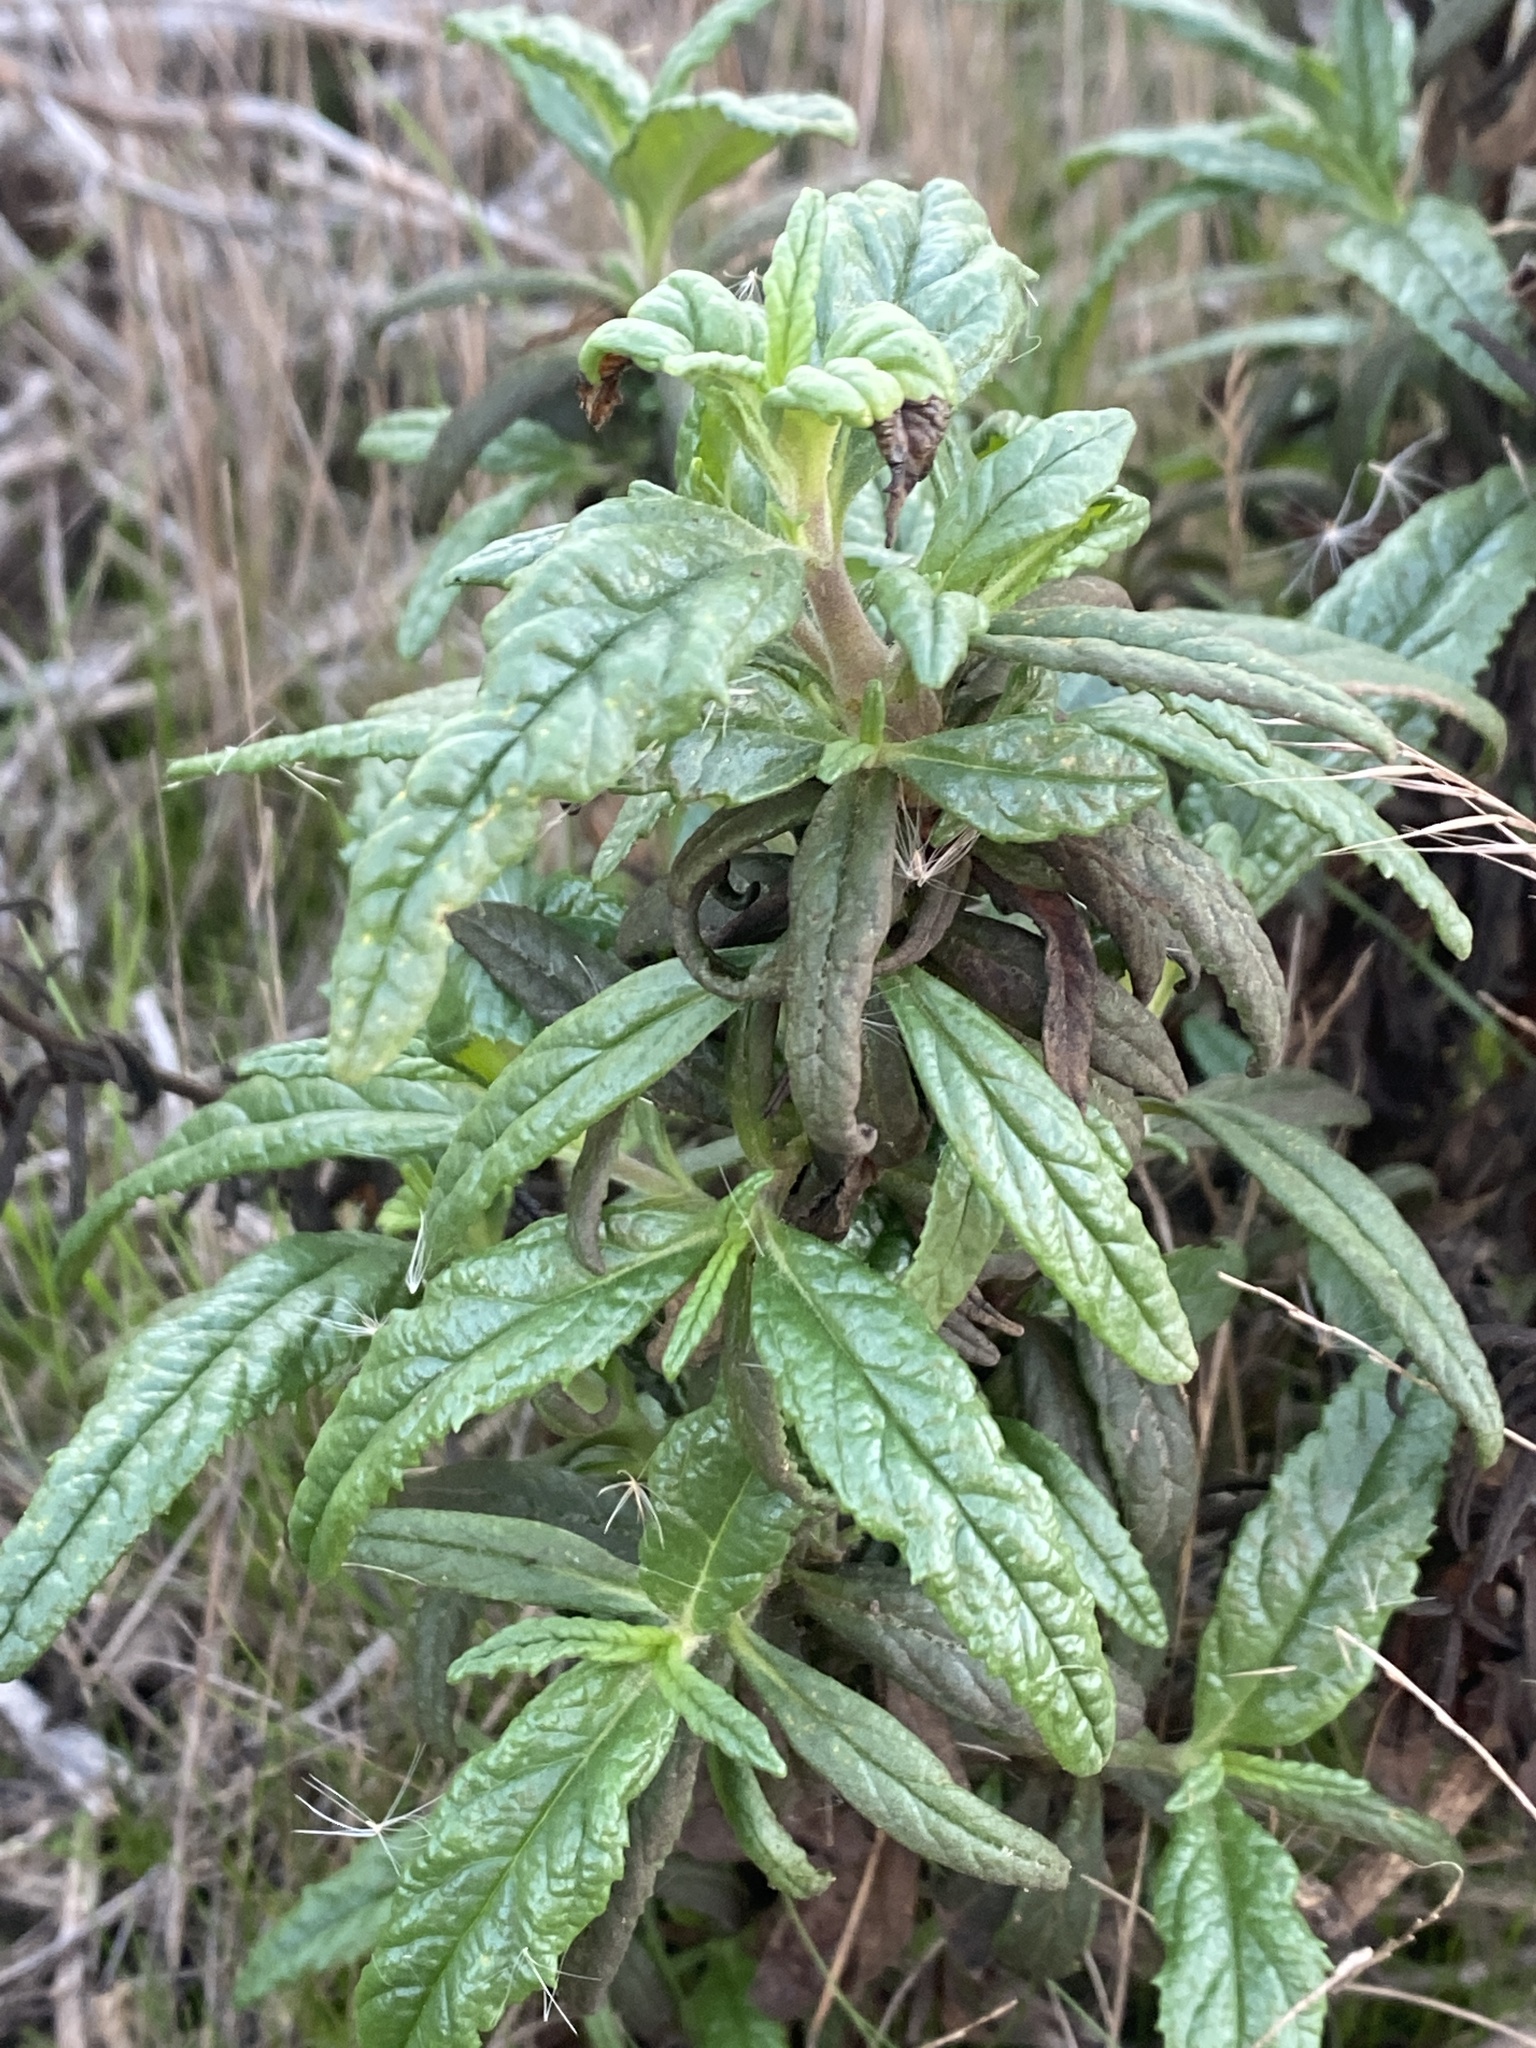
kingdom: Plantae
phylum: Tracheophyta
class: Magnoliopsida
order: Lamiales
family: Phrymaceae
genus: Diplacus
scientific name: Diplacus aurantiacus
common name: Bush monkey-flower
